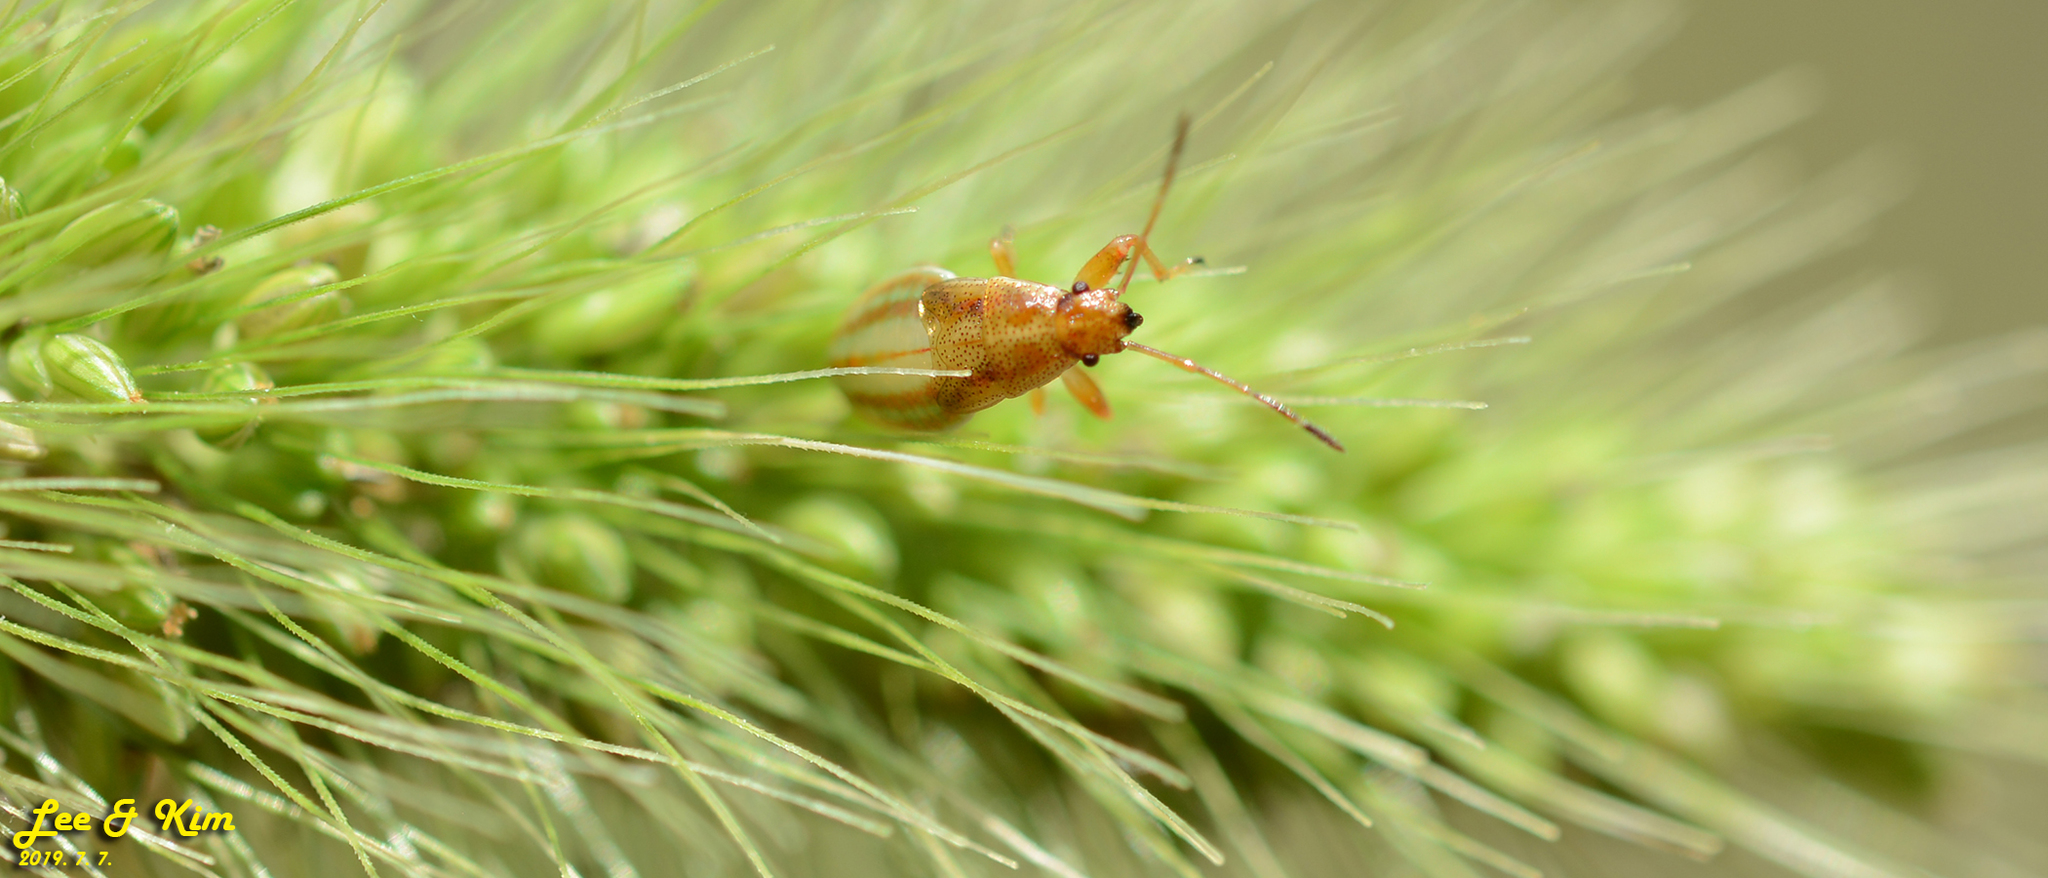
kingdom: Animalia
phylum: Arthropoda
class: Insecta
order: Hemiptera
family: Pachygronthidae
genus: Pachygrontha
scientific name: Pachygrontha antennata
